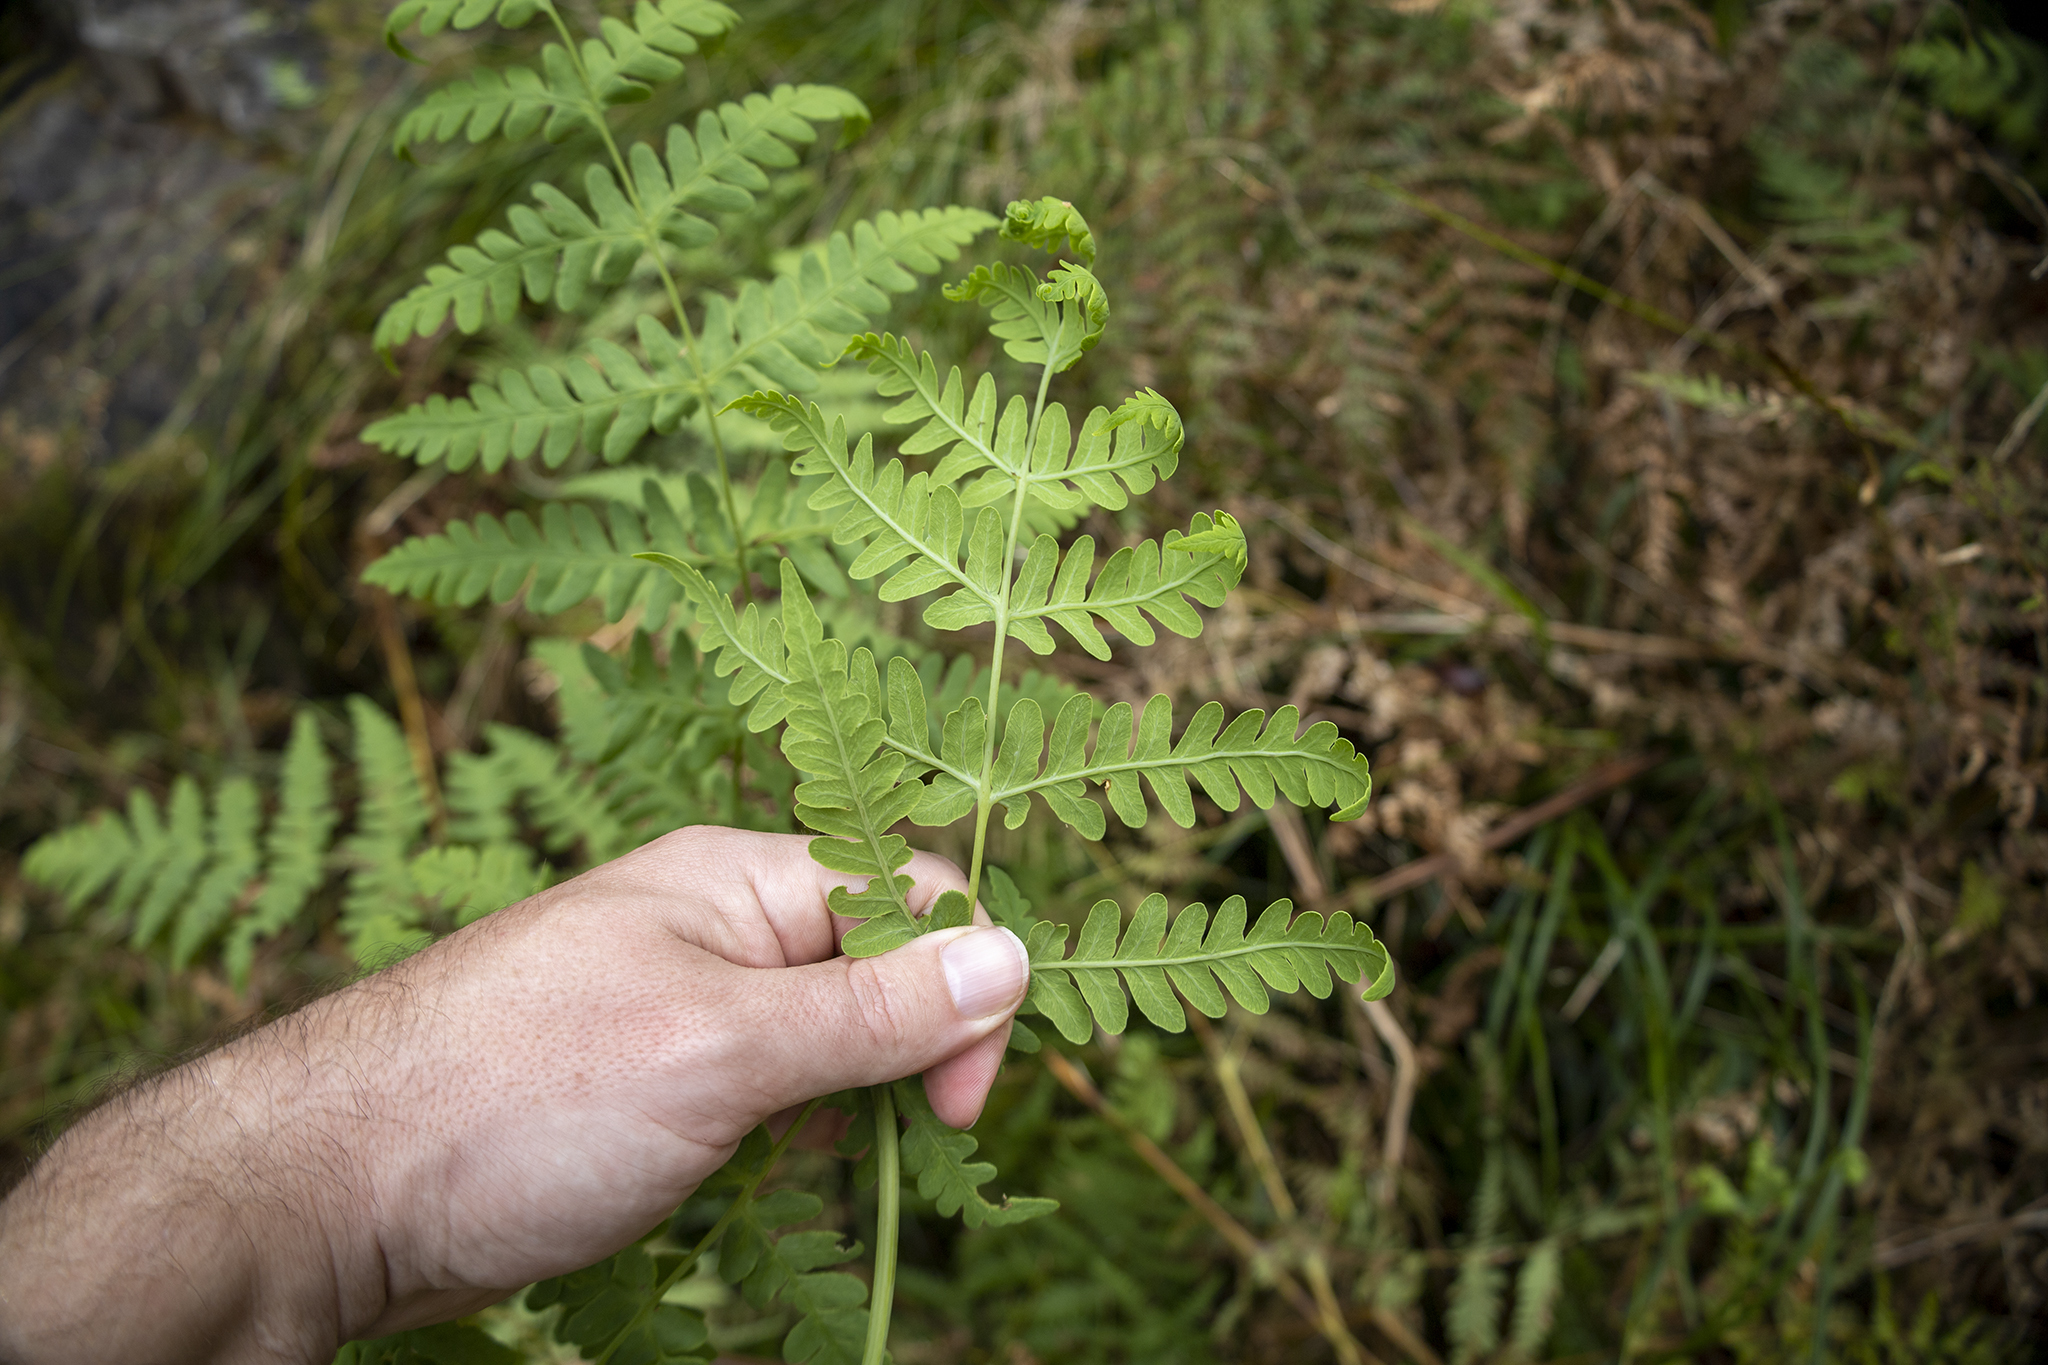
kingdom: Plantae
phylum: Tracheophyta
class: Polypodiopsida
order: Polypodiales
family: Dennstaedtiaceae
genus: Histiopteris
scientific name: Histiopteris incisa
